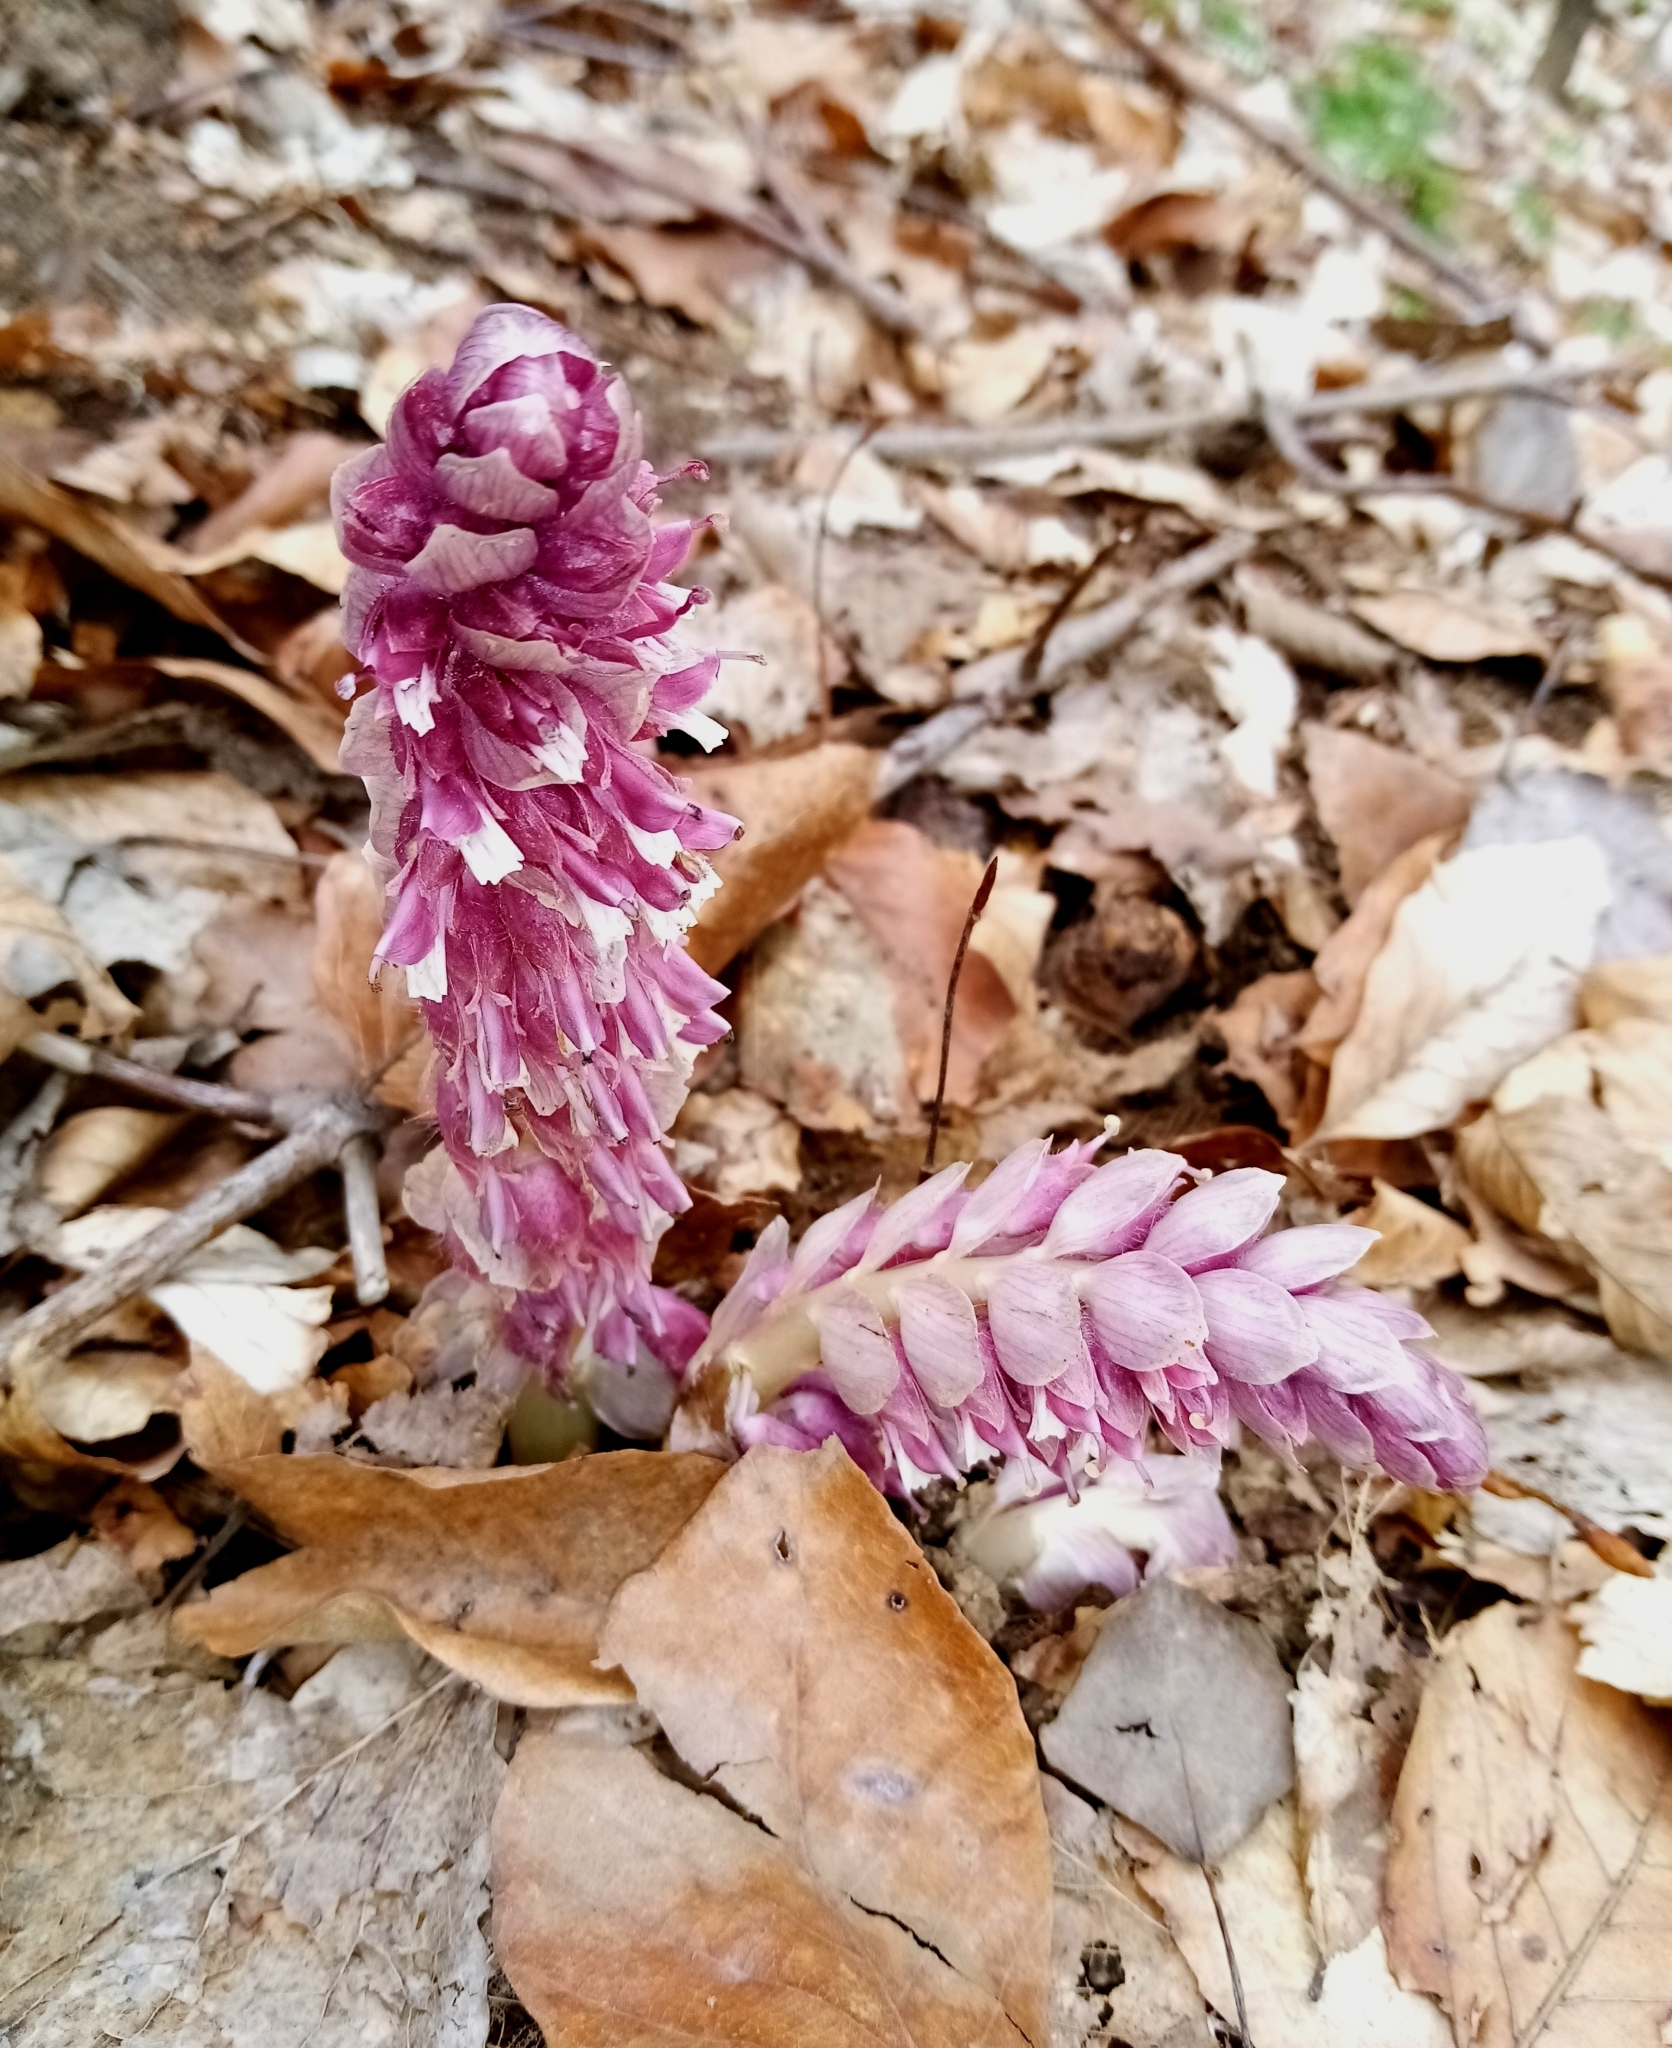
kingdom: Plantae
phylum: Tracheophyta
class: Magnoliopsida
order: Lamiales
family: Orobanchaceae
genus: Lathraea
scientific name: Lathraea squamaria
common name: Toothwort
